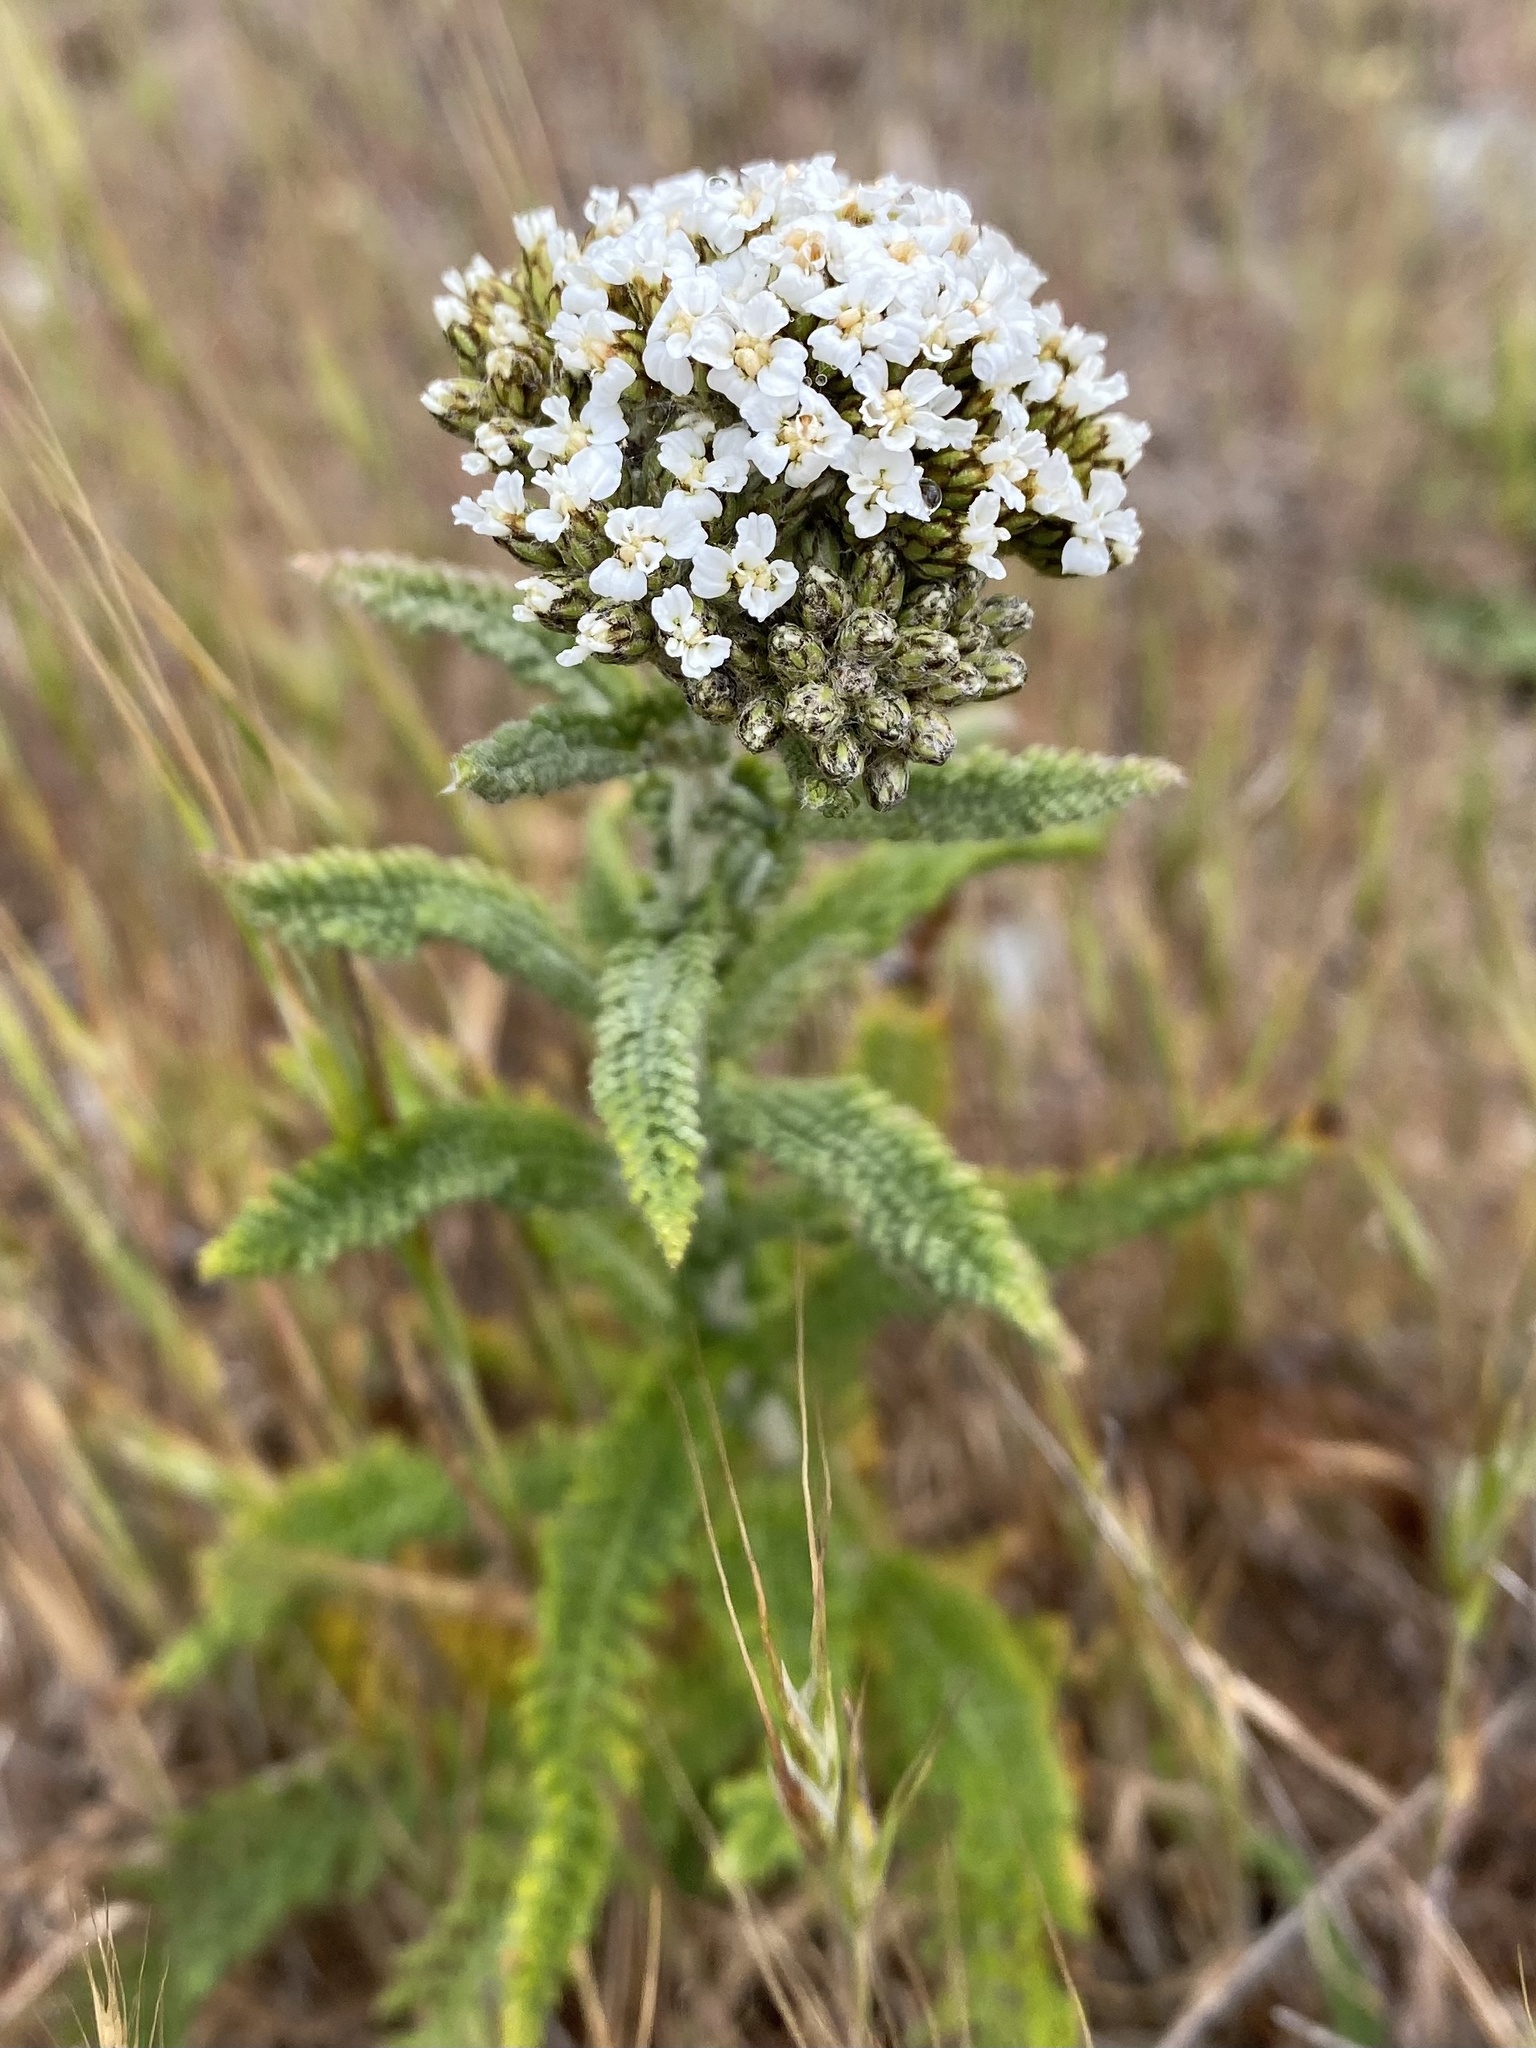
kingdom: Plantae
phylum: Tracheophyta
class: Magnoliopsida
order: Asterales
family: Asteraceae
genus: Achillea
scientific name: Achillea millefolium
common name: Yarrow
